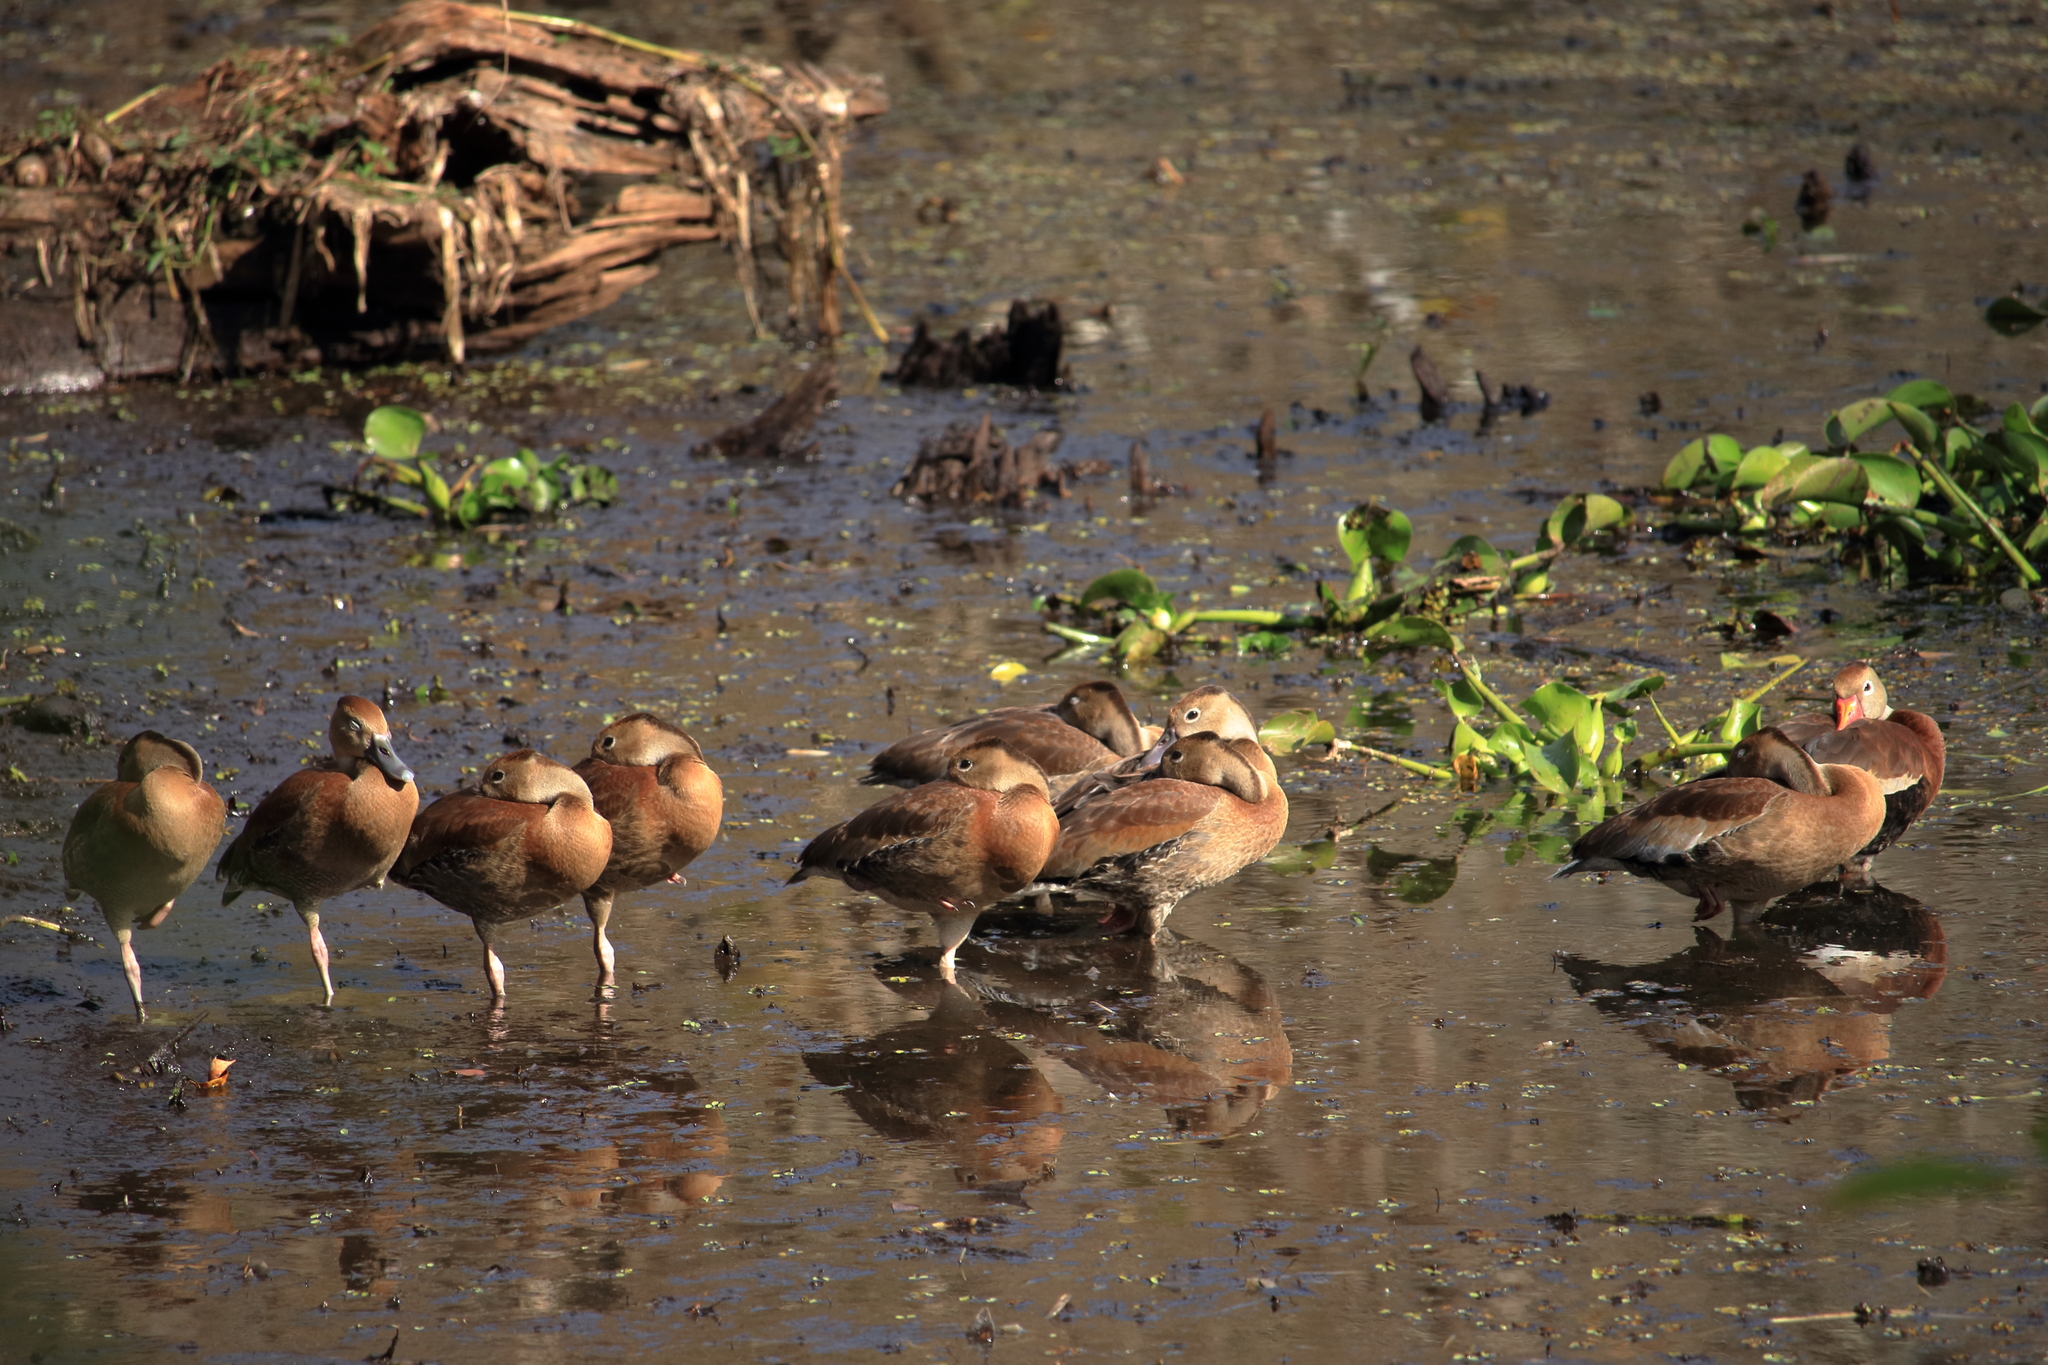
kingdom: Animalia
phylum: Chordata
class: Aves
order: Anseriformes
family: Anatidae
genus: Dendrocygna
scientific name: Dendrocygna autumnalis
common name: Black-bellied whistling duck
